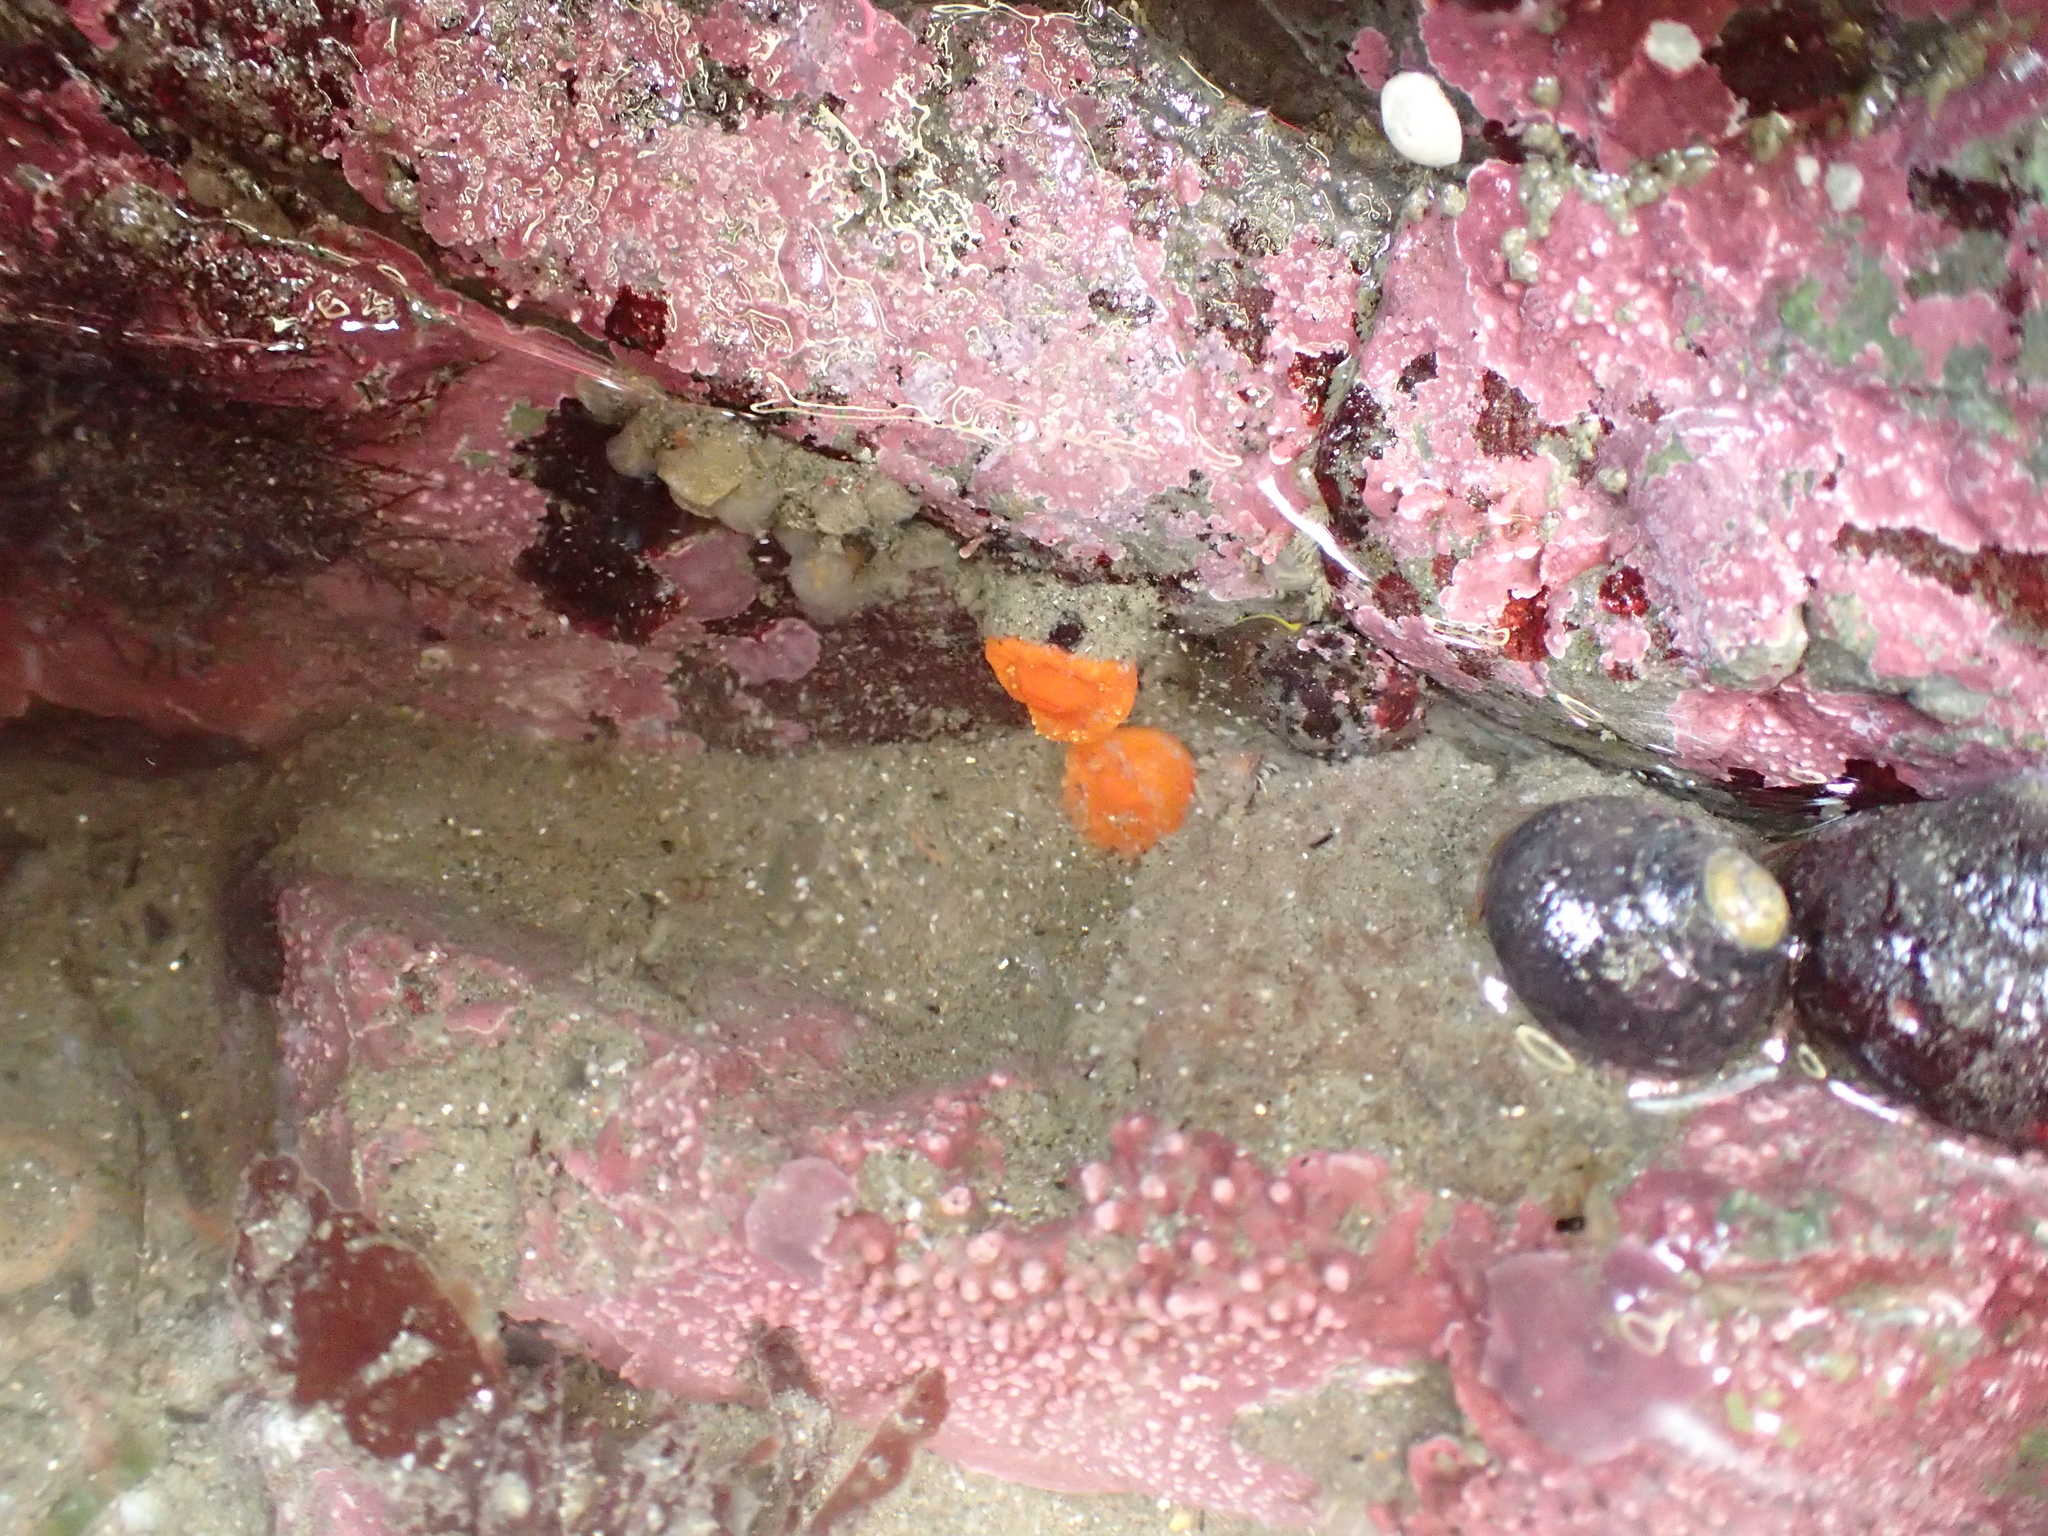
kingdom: Animalia
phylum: Cnidaria
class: Anthozoa
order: Scleractinia
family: Dendrophylliidae
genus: Balanophyllia
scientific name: Balanophyllia elegans
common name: Orange stony coral
